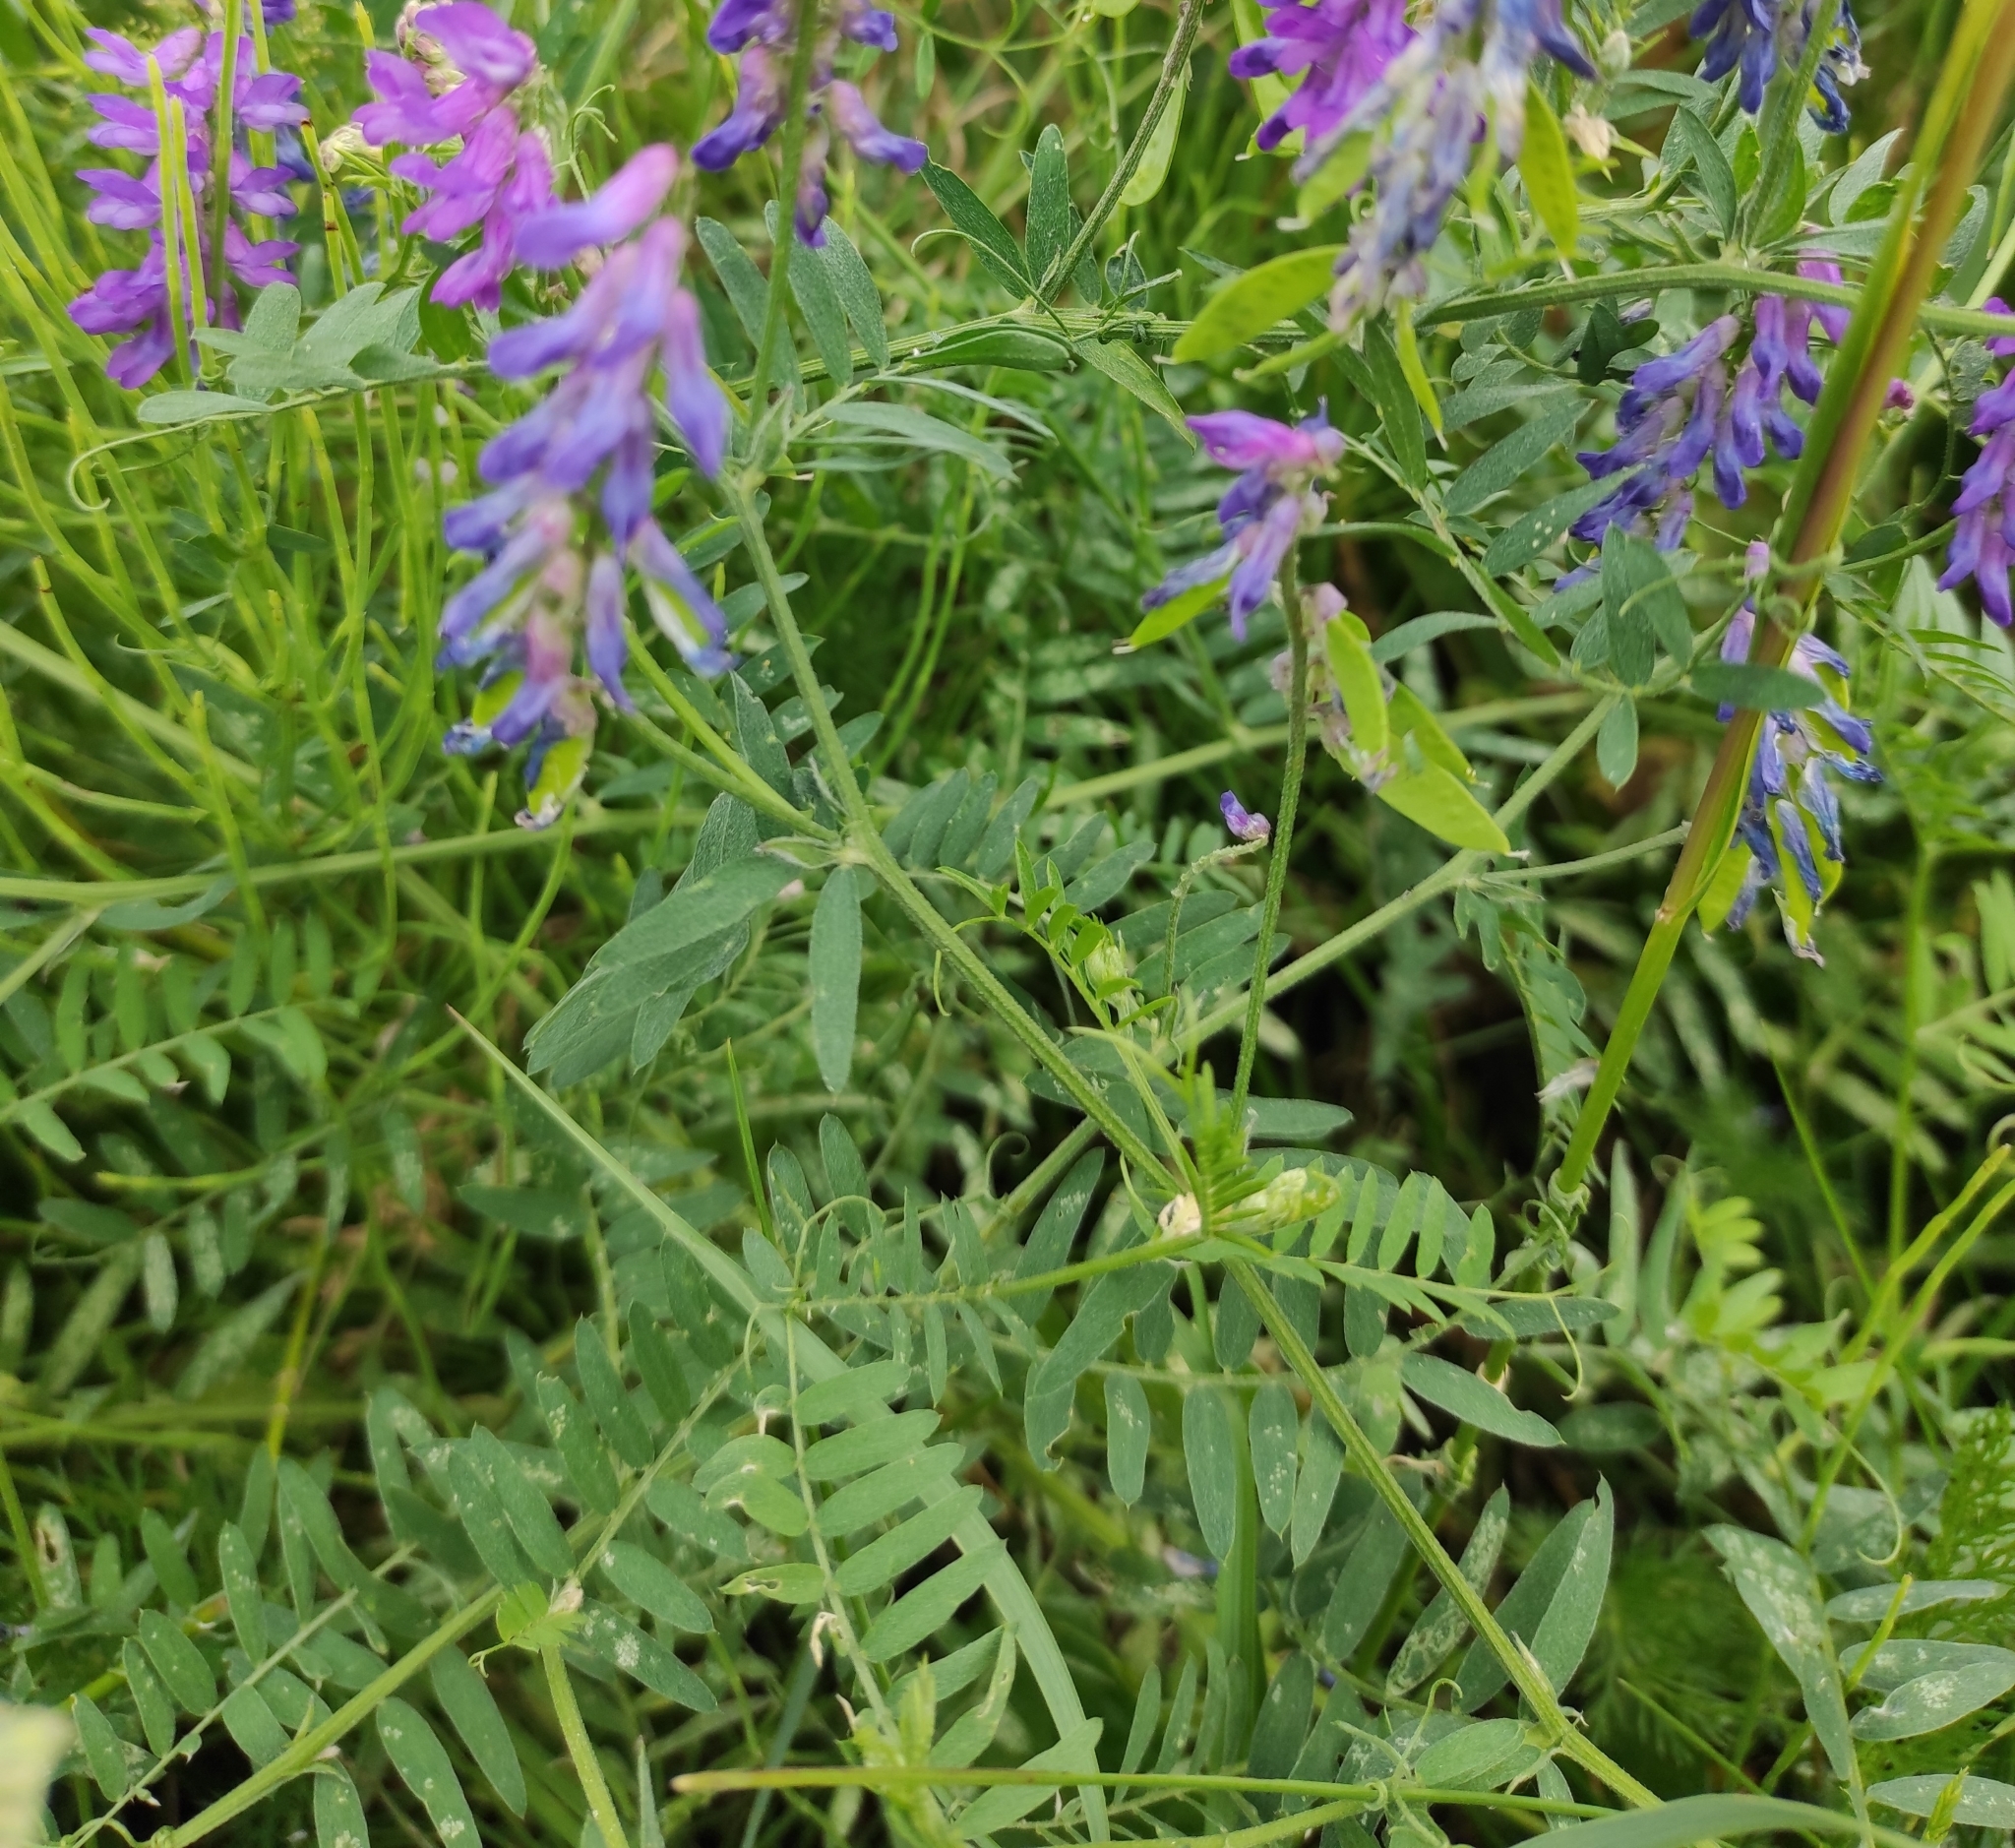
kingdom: Plantae
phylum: Tracheophyta
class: Magnoliopsida
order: Fabales
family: Fabaceae
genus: Vicia
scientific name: Vicia cracca
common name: Bird vetch
